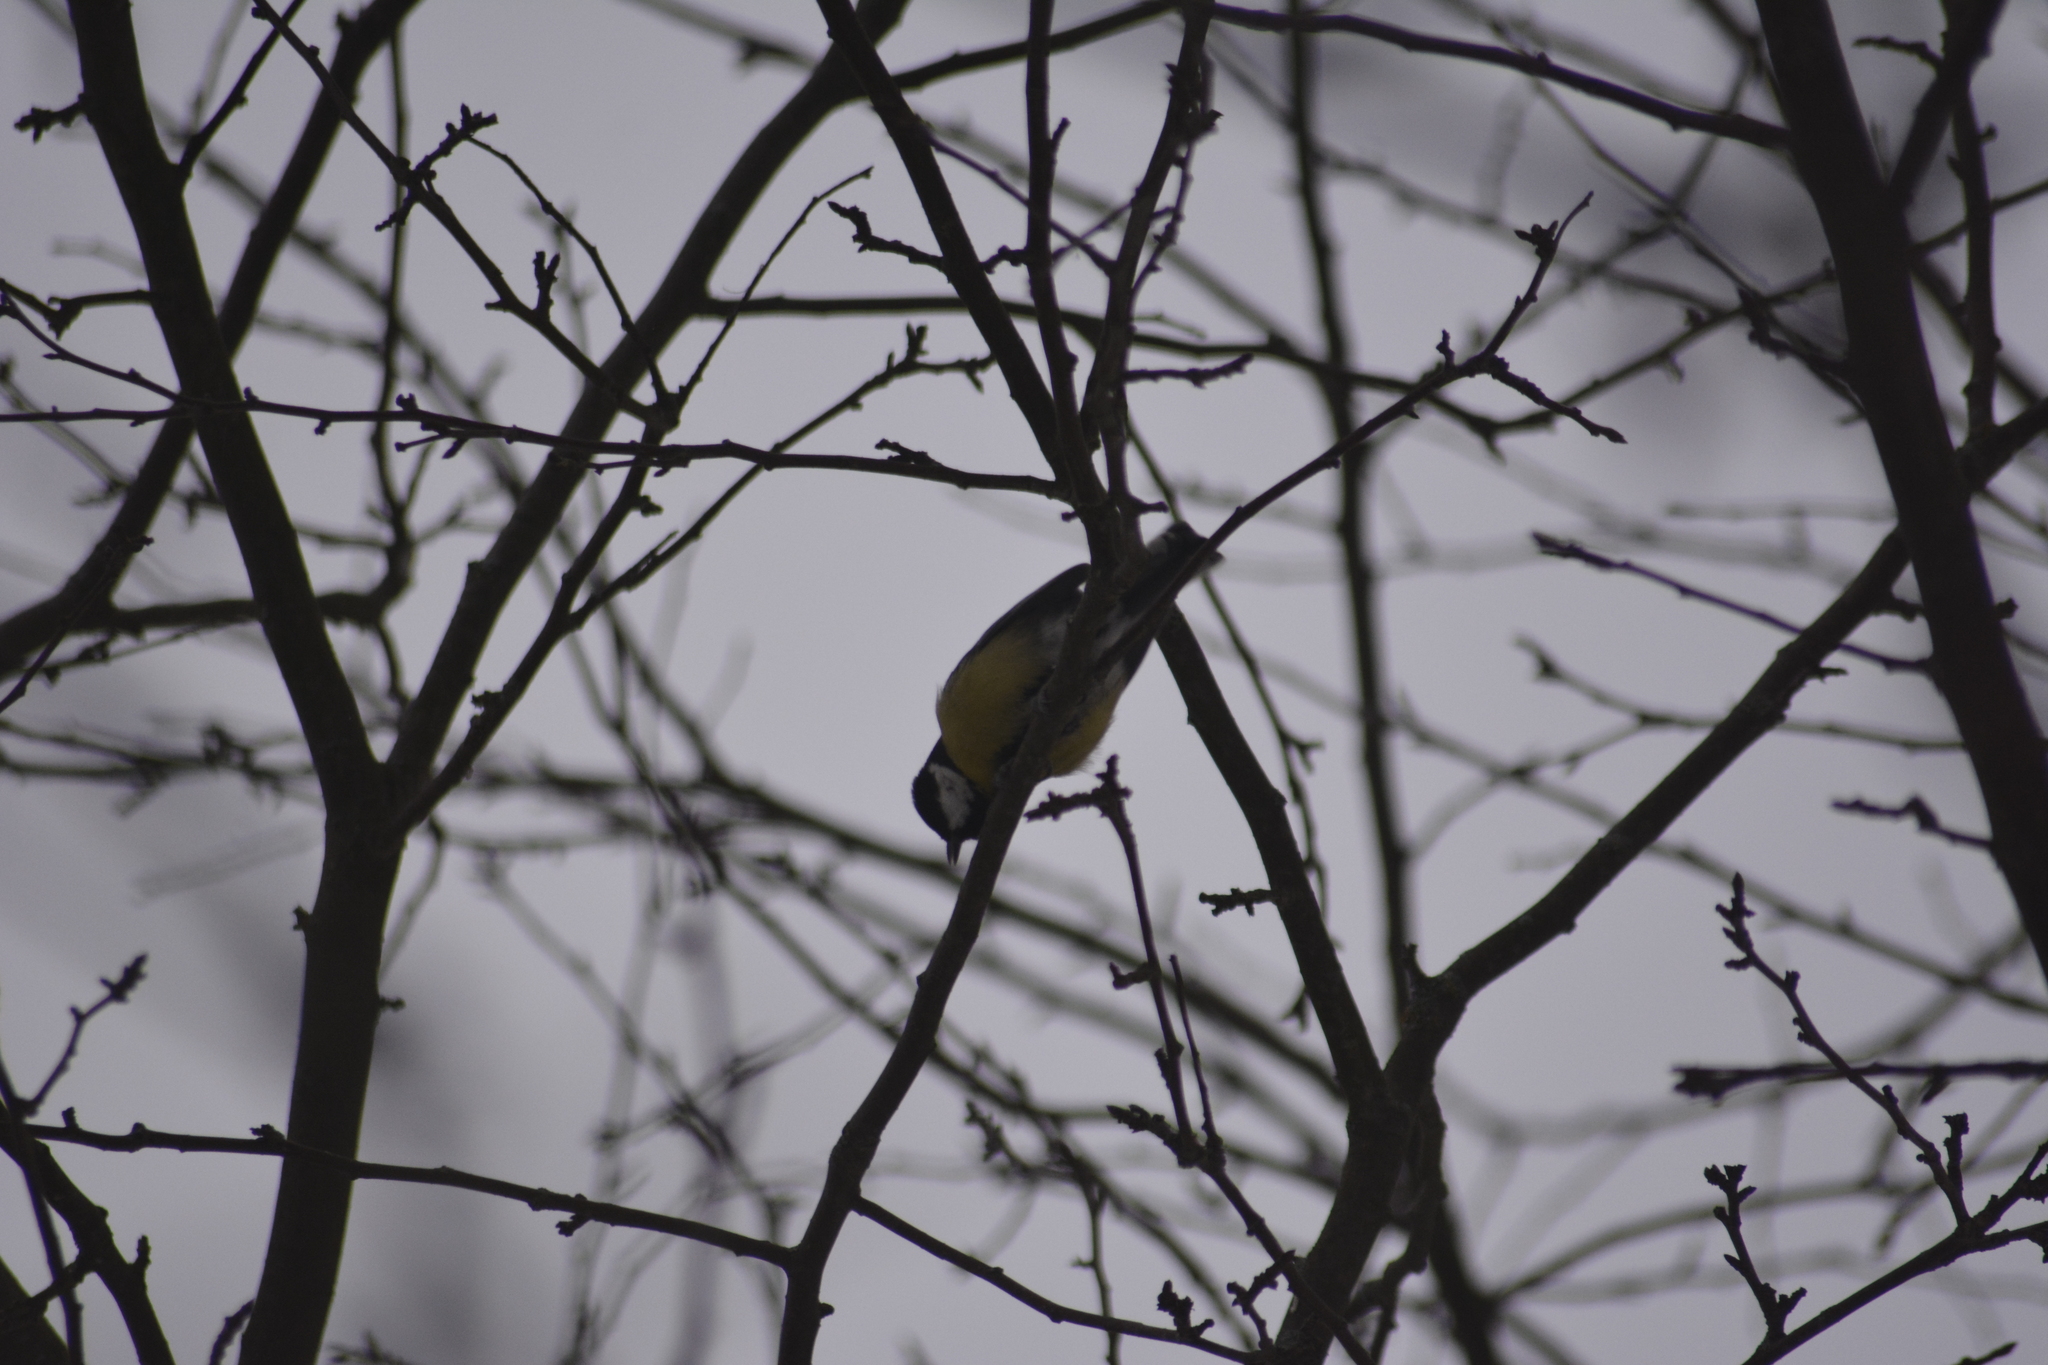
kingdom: Animalia
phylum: Chordata
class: Aves
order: Passeriformes
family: Paridae
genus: Parus
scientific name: Parus major
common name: Great tit
